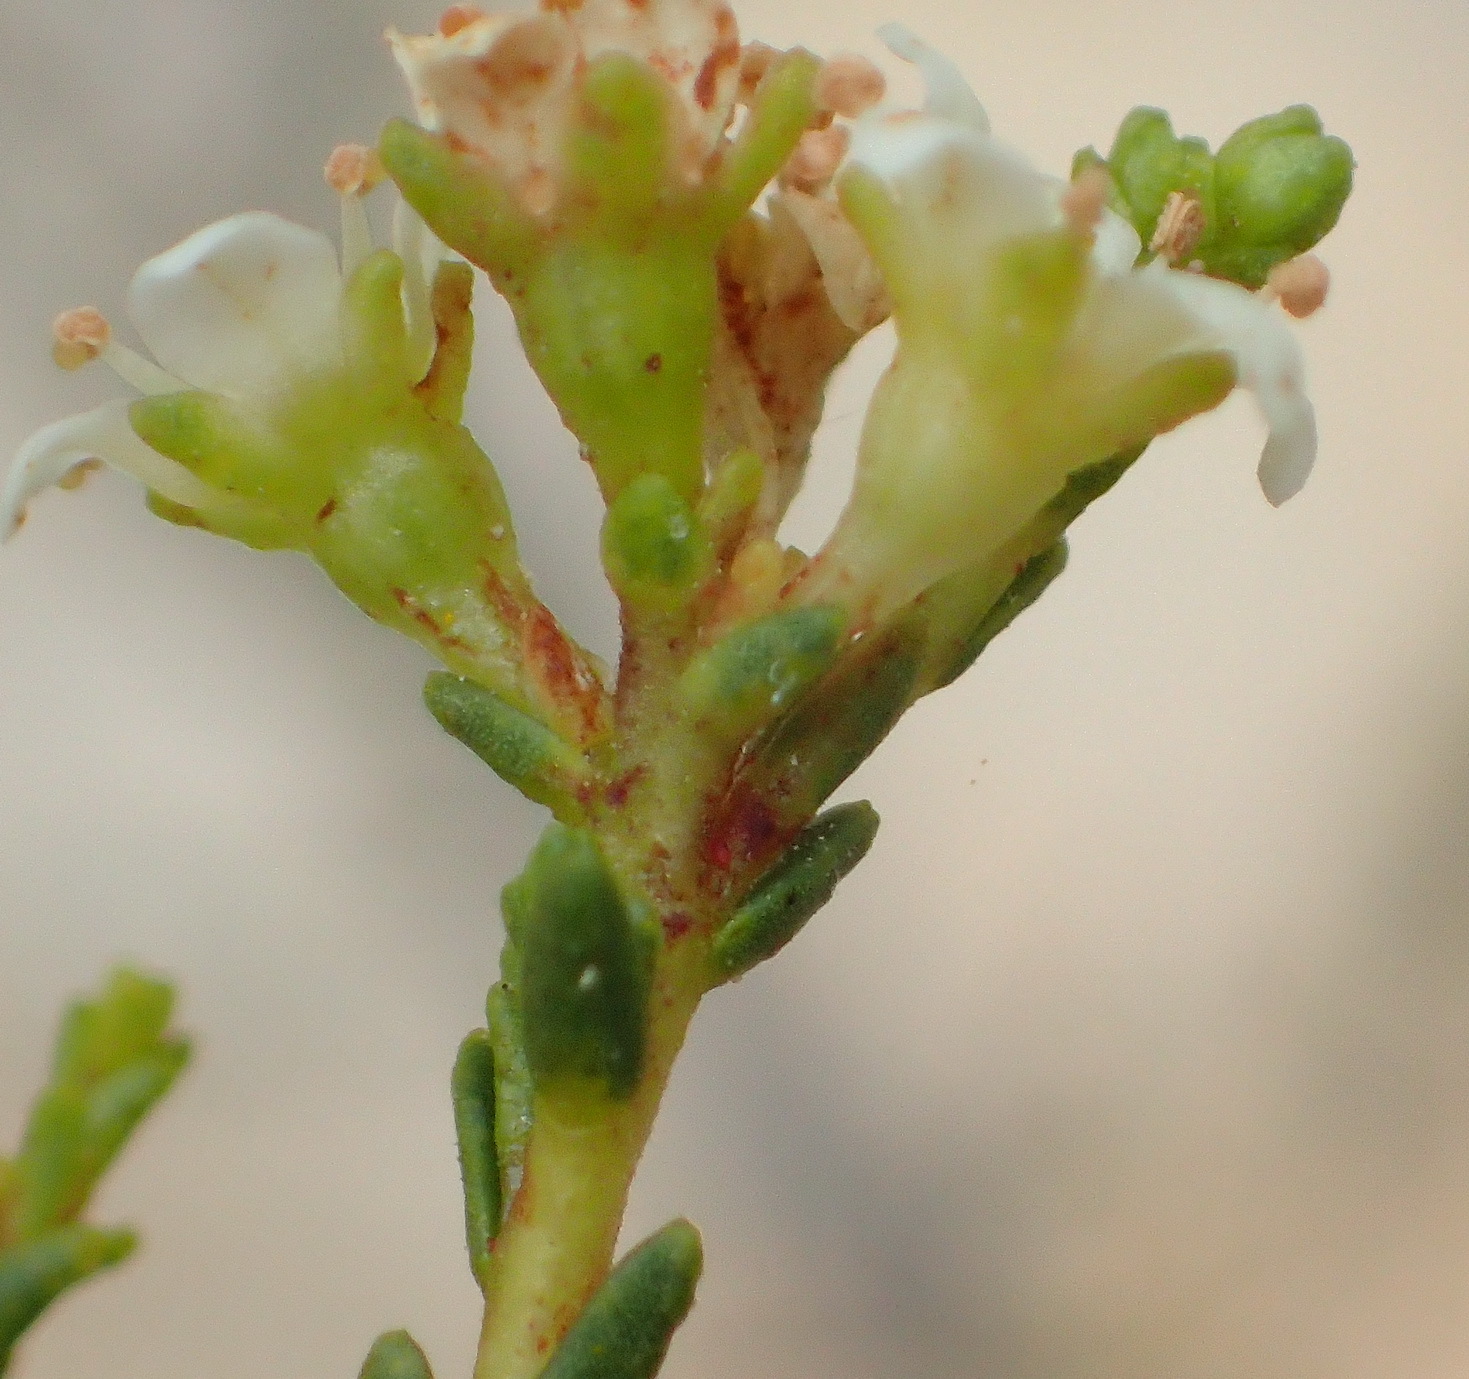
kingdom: Plantae
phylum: Tracheophyta
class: Magnoliopsida
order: Sapindales
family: Rutaceae
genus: Diosma
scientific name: Diosma prama
